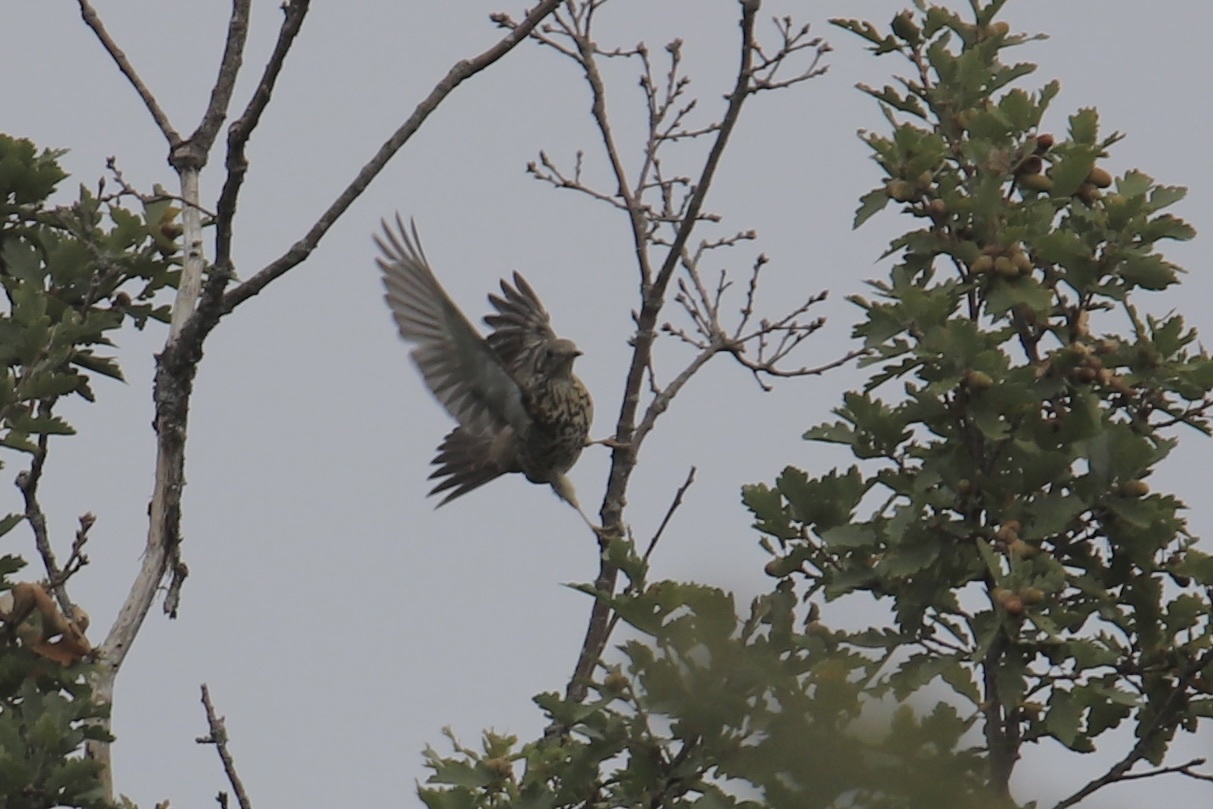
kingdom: Animalia
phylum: Chordata
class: Aves
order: Passeriformes
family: Turdidae
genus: Turdus
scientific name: Turdus viscivorus
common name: Mistle thrush
